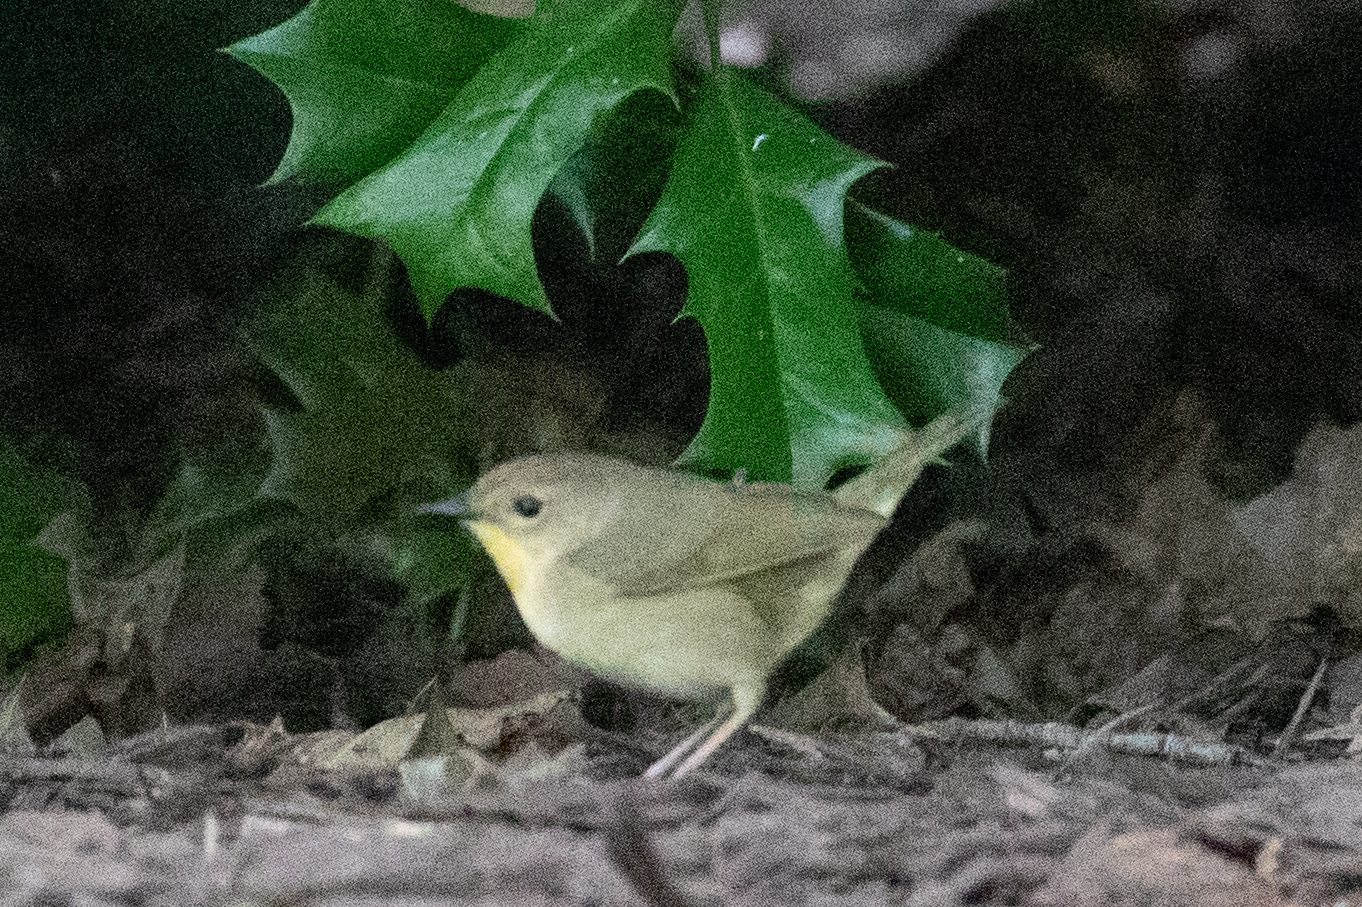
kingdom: Animalia
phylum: Chordata
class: Aves
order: Passeriformes
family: Parulidae
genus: Geothlypis
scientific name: Geothlypis trichas
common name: Common yellowthroat
